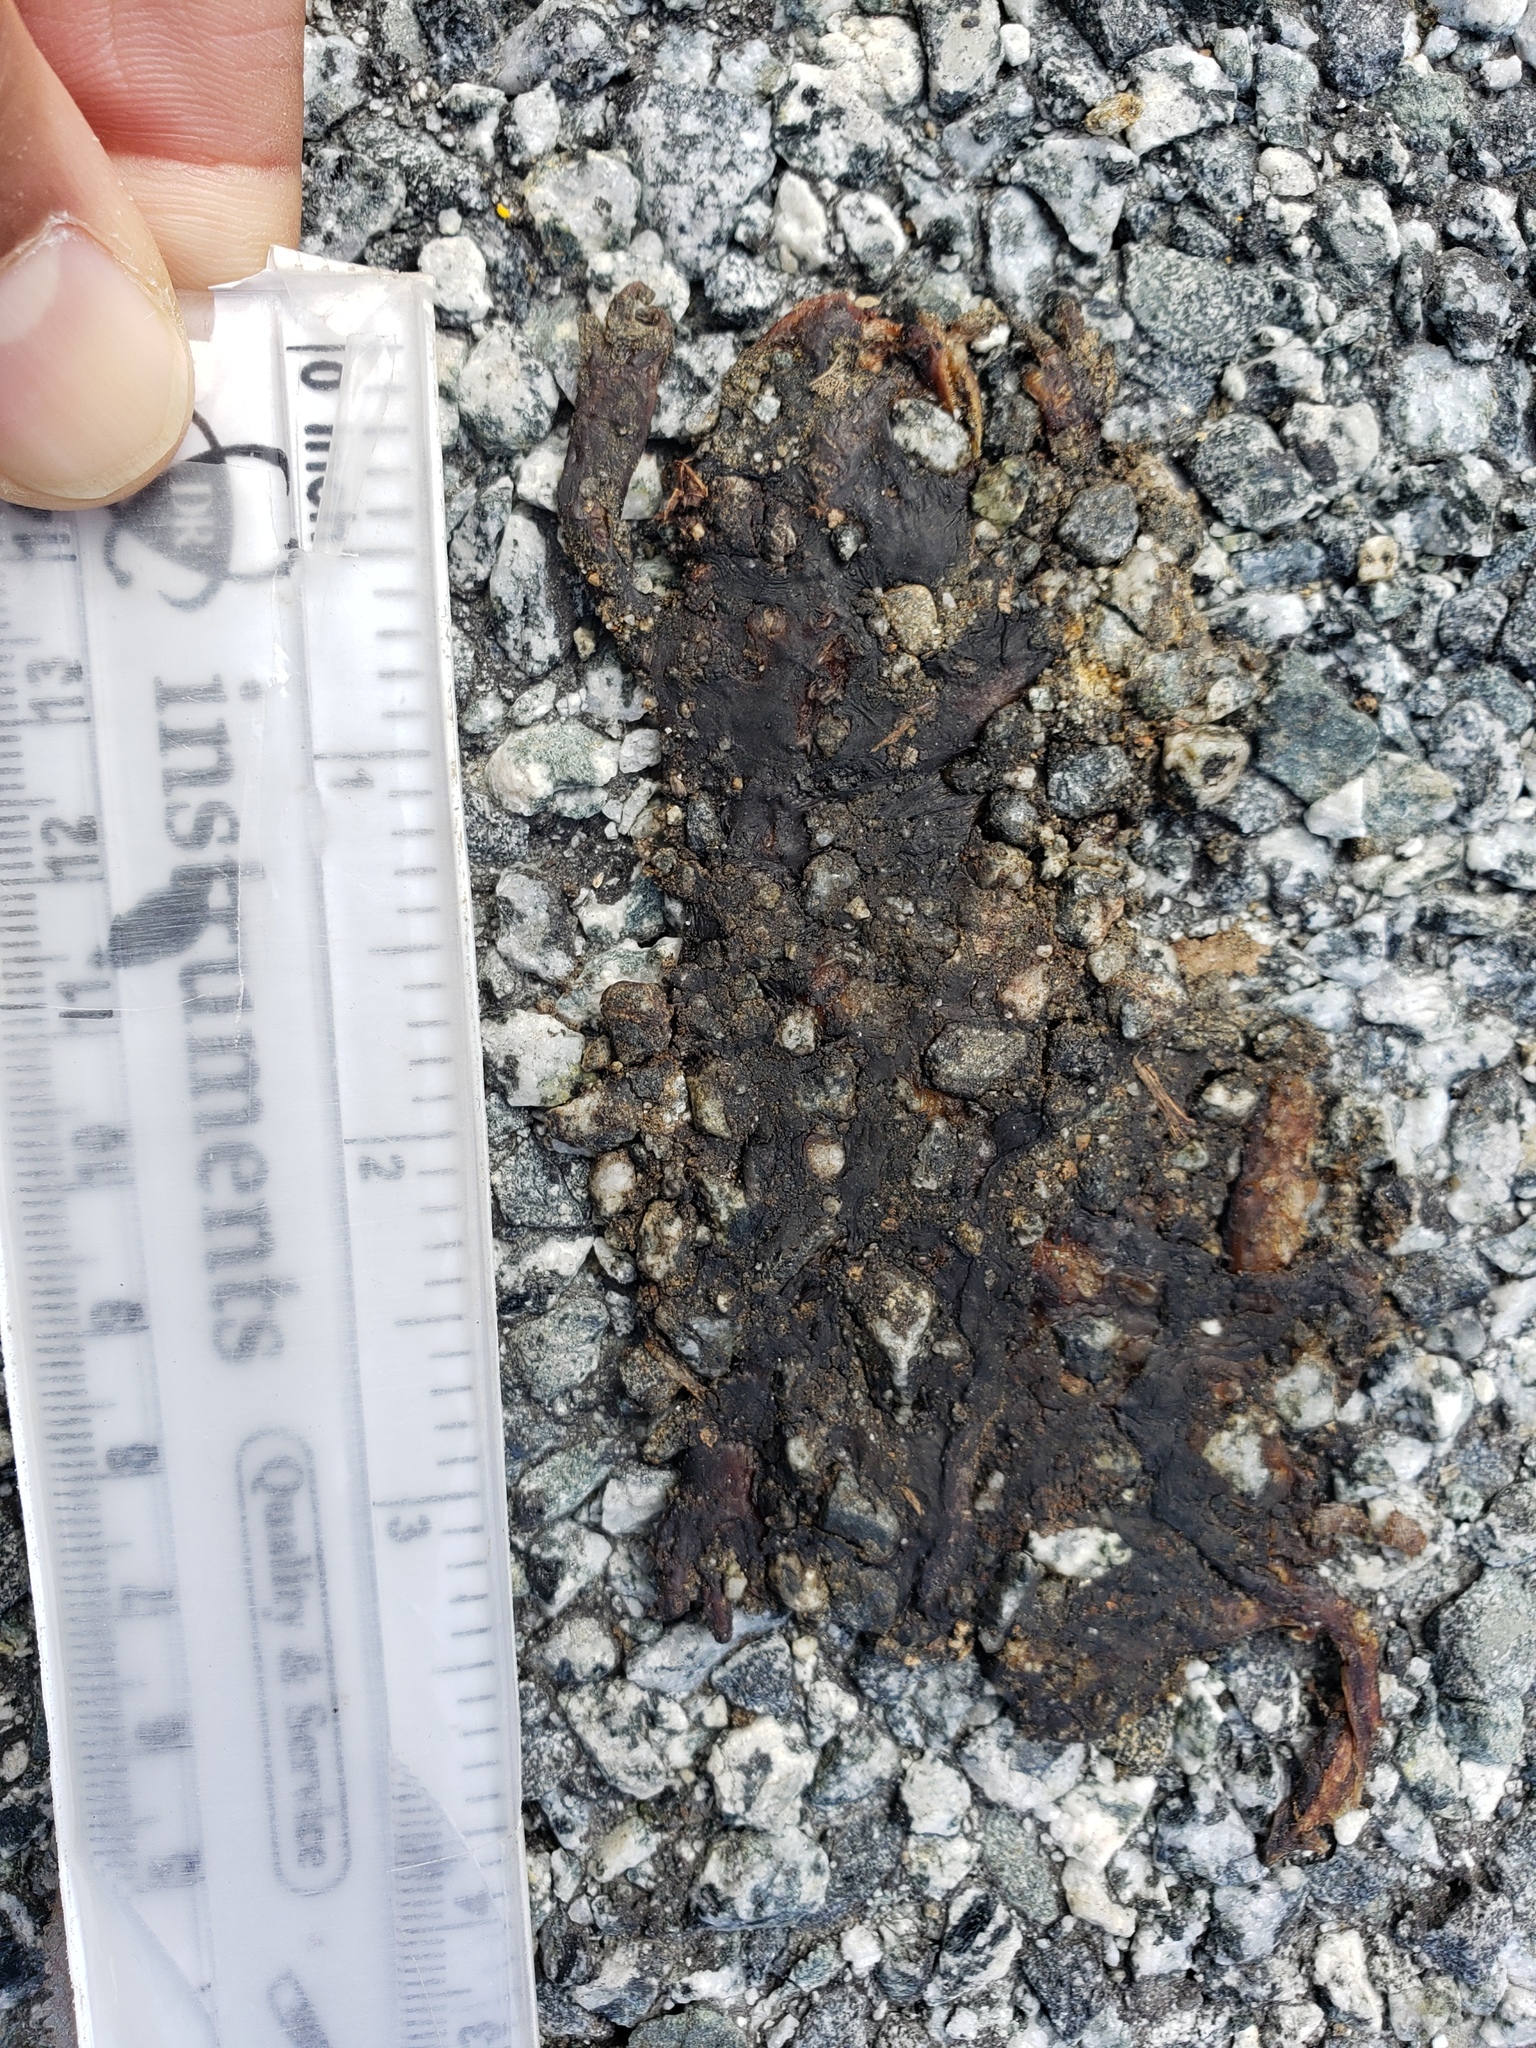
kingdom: Animalia
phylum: Chordata
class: Amphibia
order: Caudata
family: Salamandridae
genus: Taricha
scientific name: Taricha
